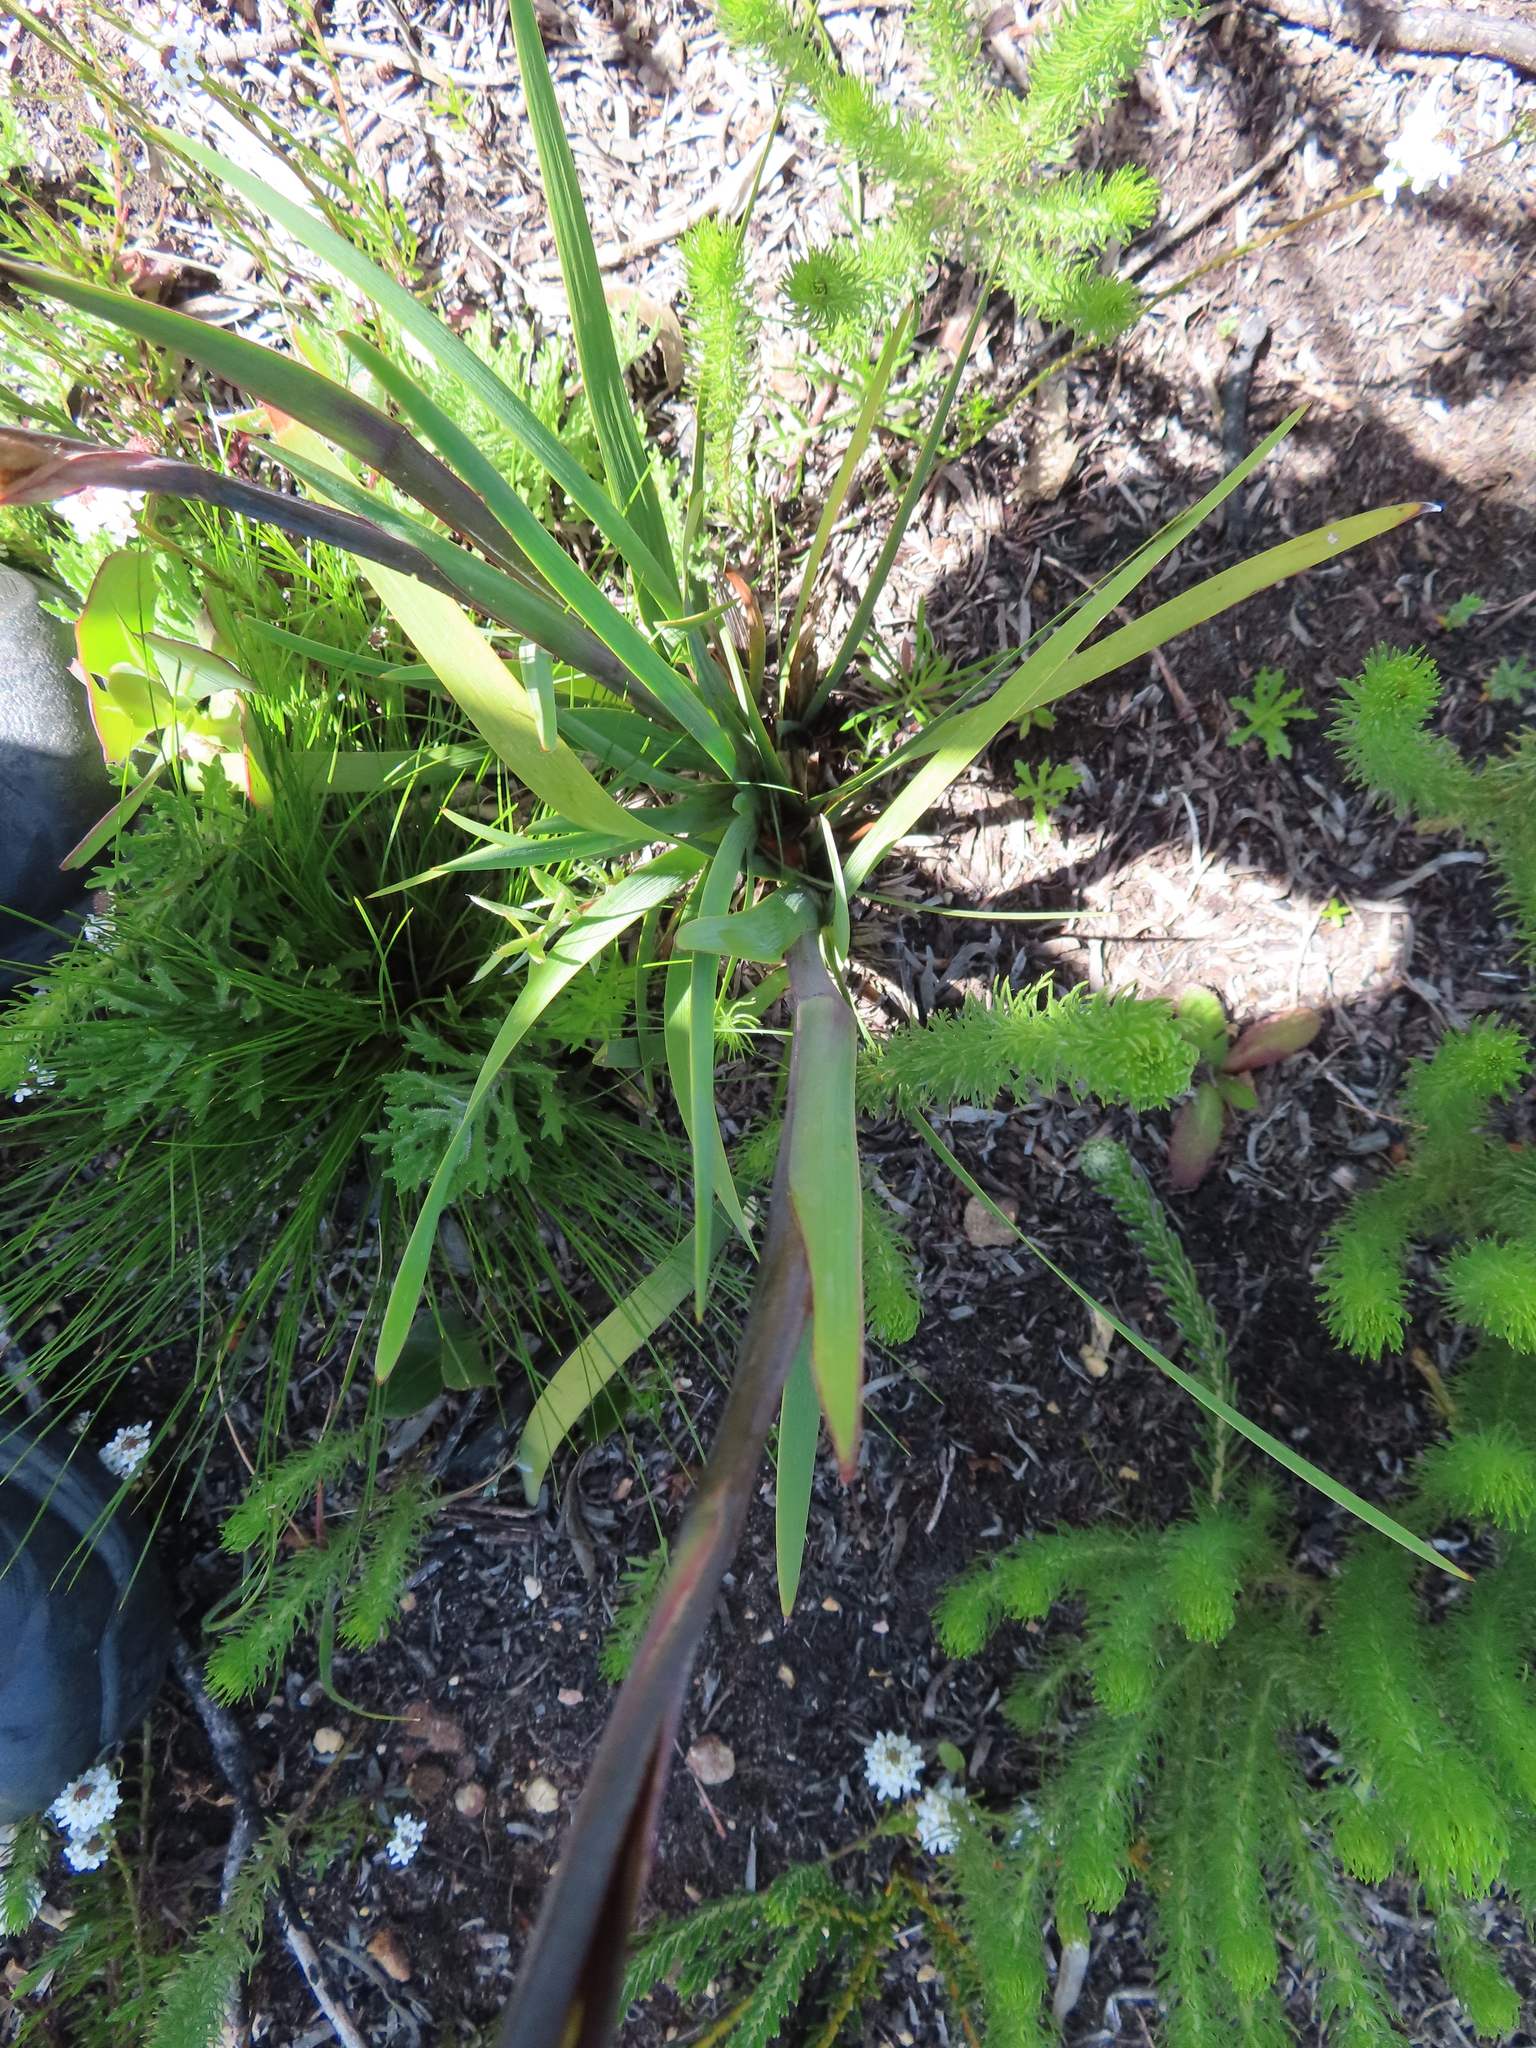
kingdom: Plantae
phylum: Tracheophyta
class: Liliopsida
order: Asparagales
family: Iridaceae
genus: Aristea
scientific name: Aristea spiralis
